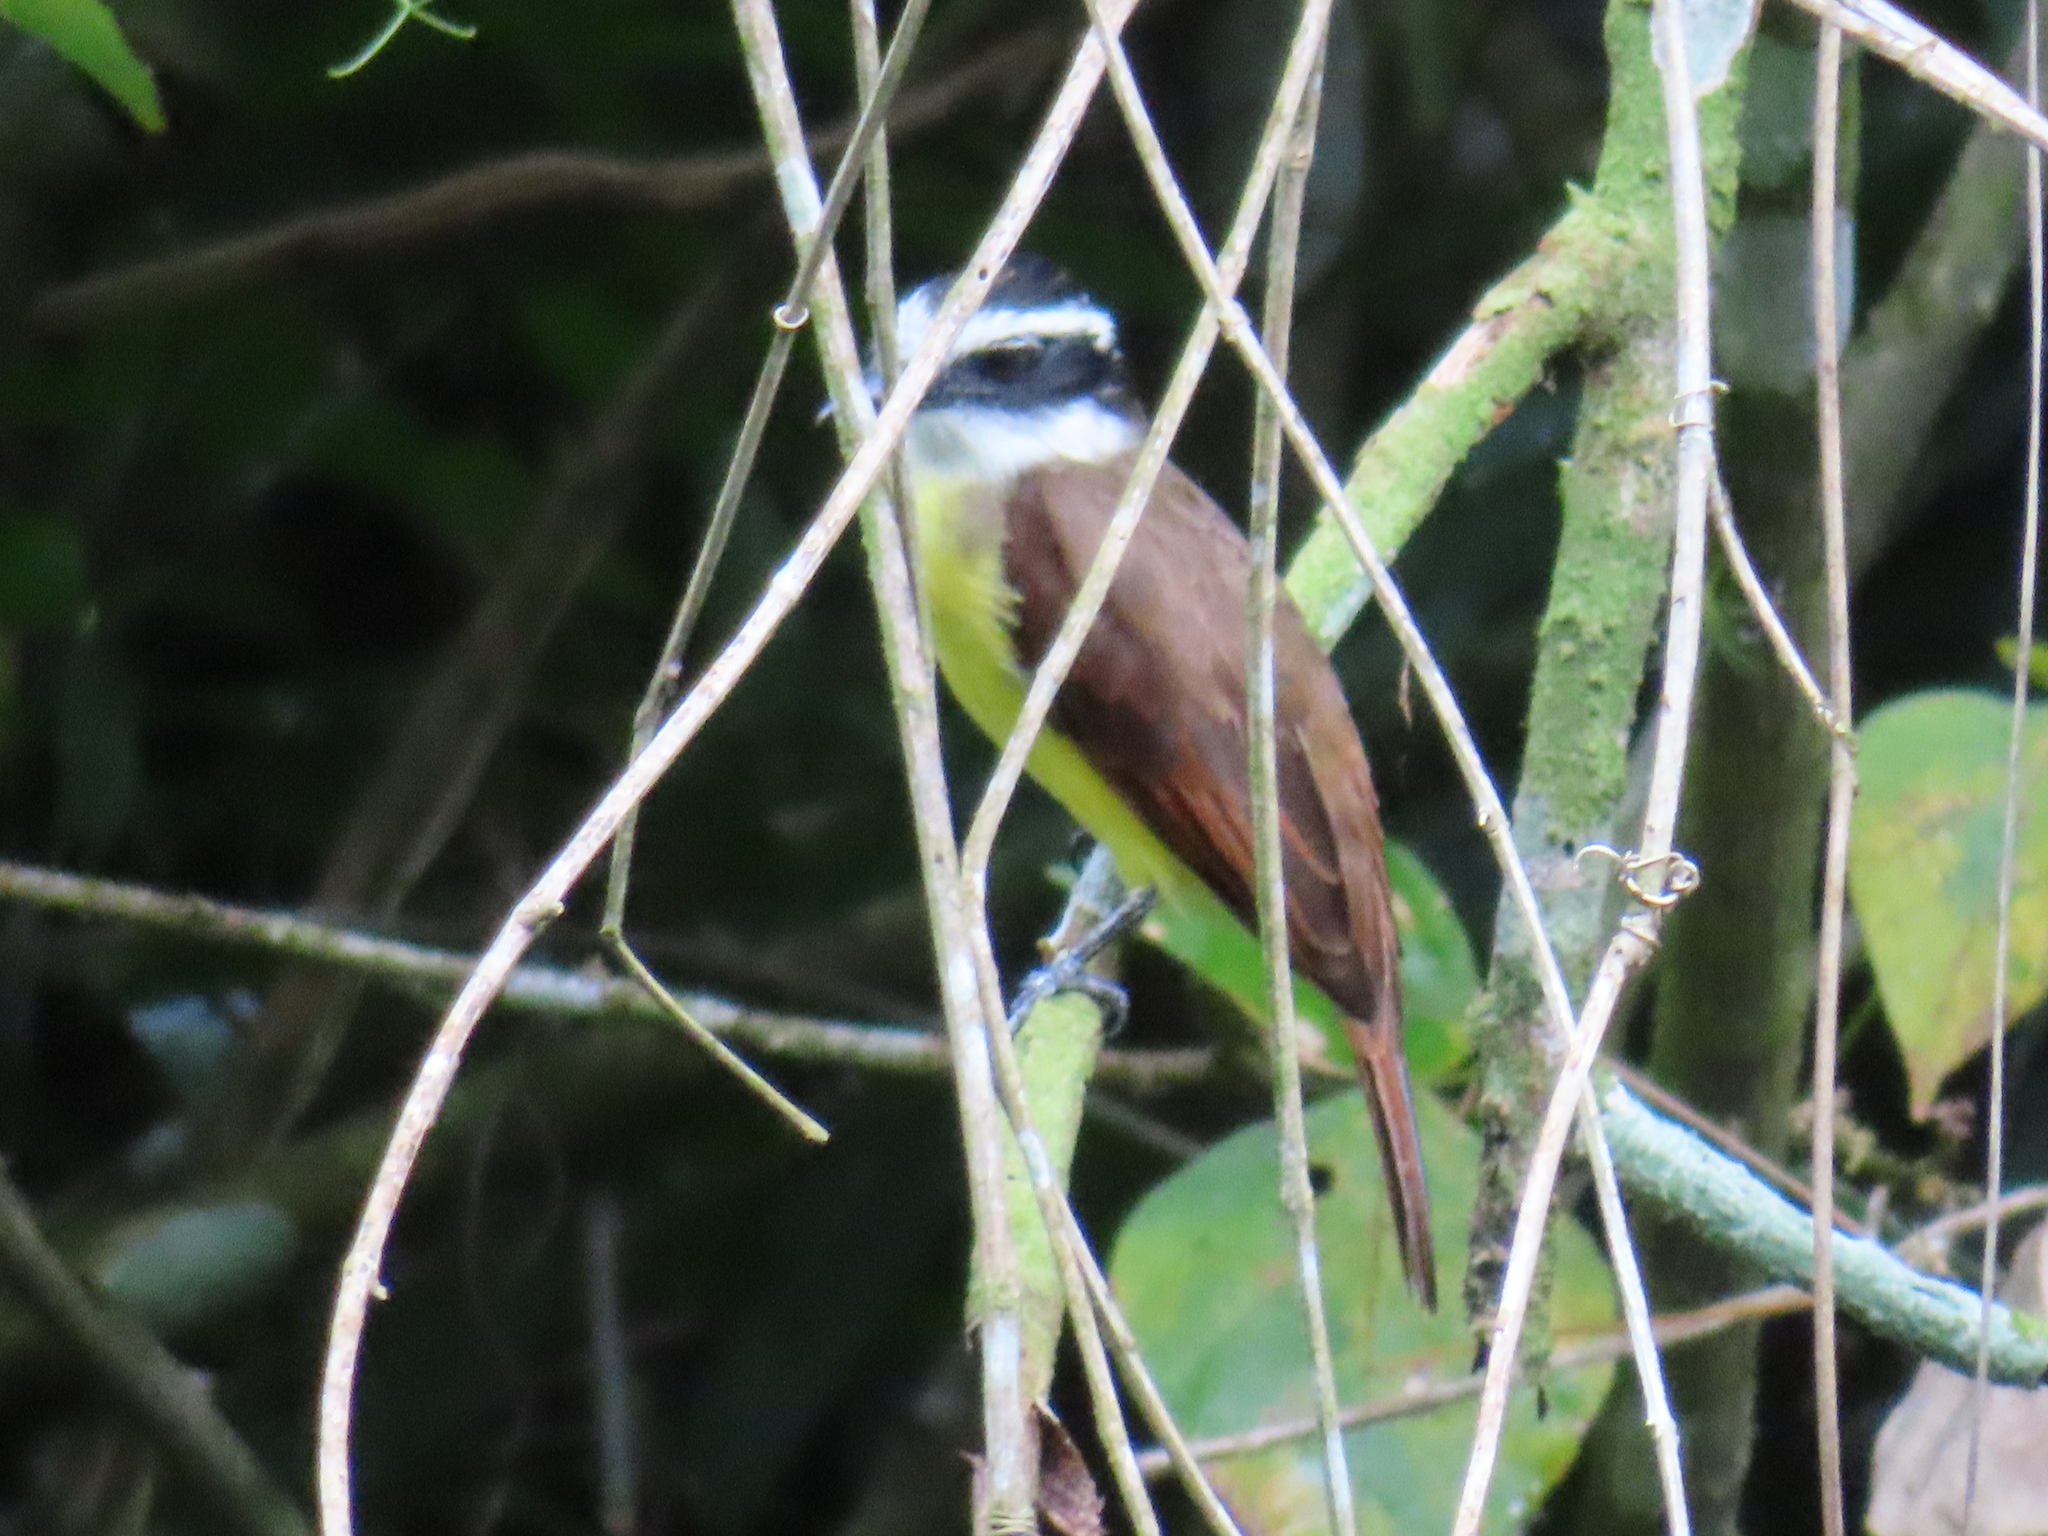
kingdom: Animalia
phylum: Chordata
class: Aves
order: Passeriformes
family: Tyrannidae
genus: Pitangus
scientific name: Pitangus sulphuratus
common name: Great kiskadee
